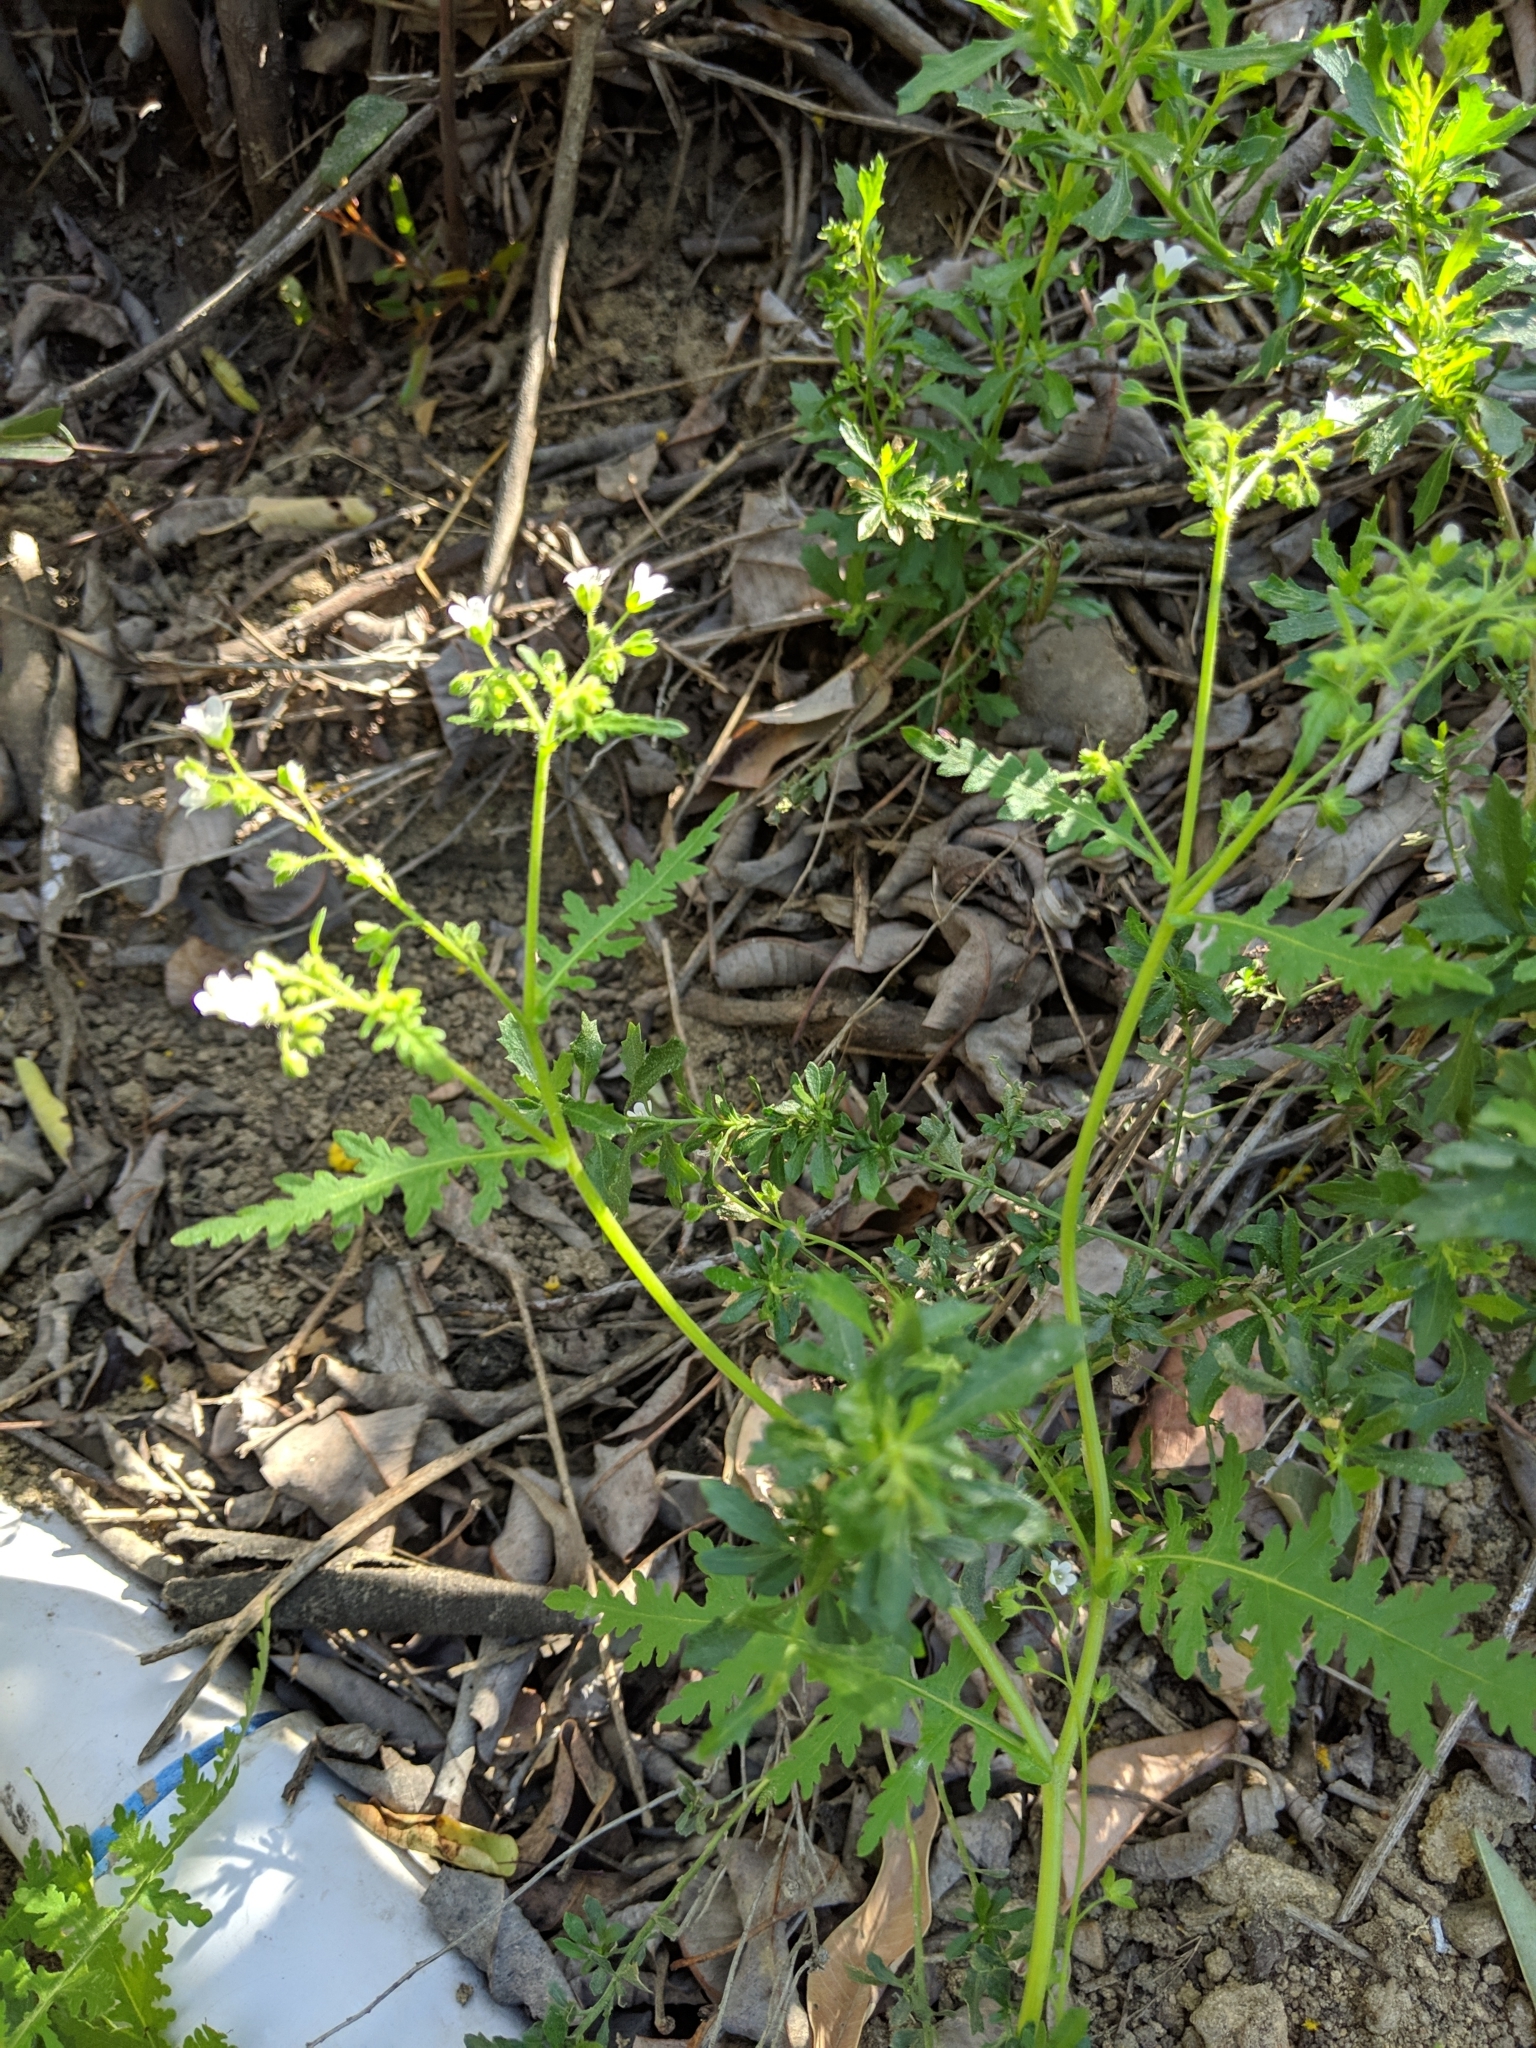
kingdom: Plantae
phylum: Tracheophyta
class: Magnoliopsida
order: Boraginales
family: Hydrophyllaceae
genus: Eucrypta
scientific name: Eucrypta chrysanthemifolia
